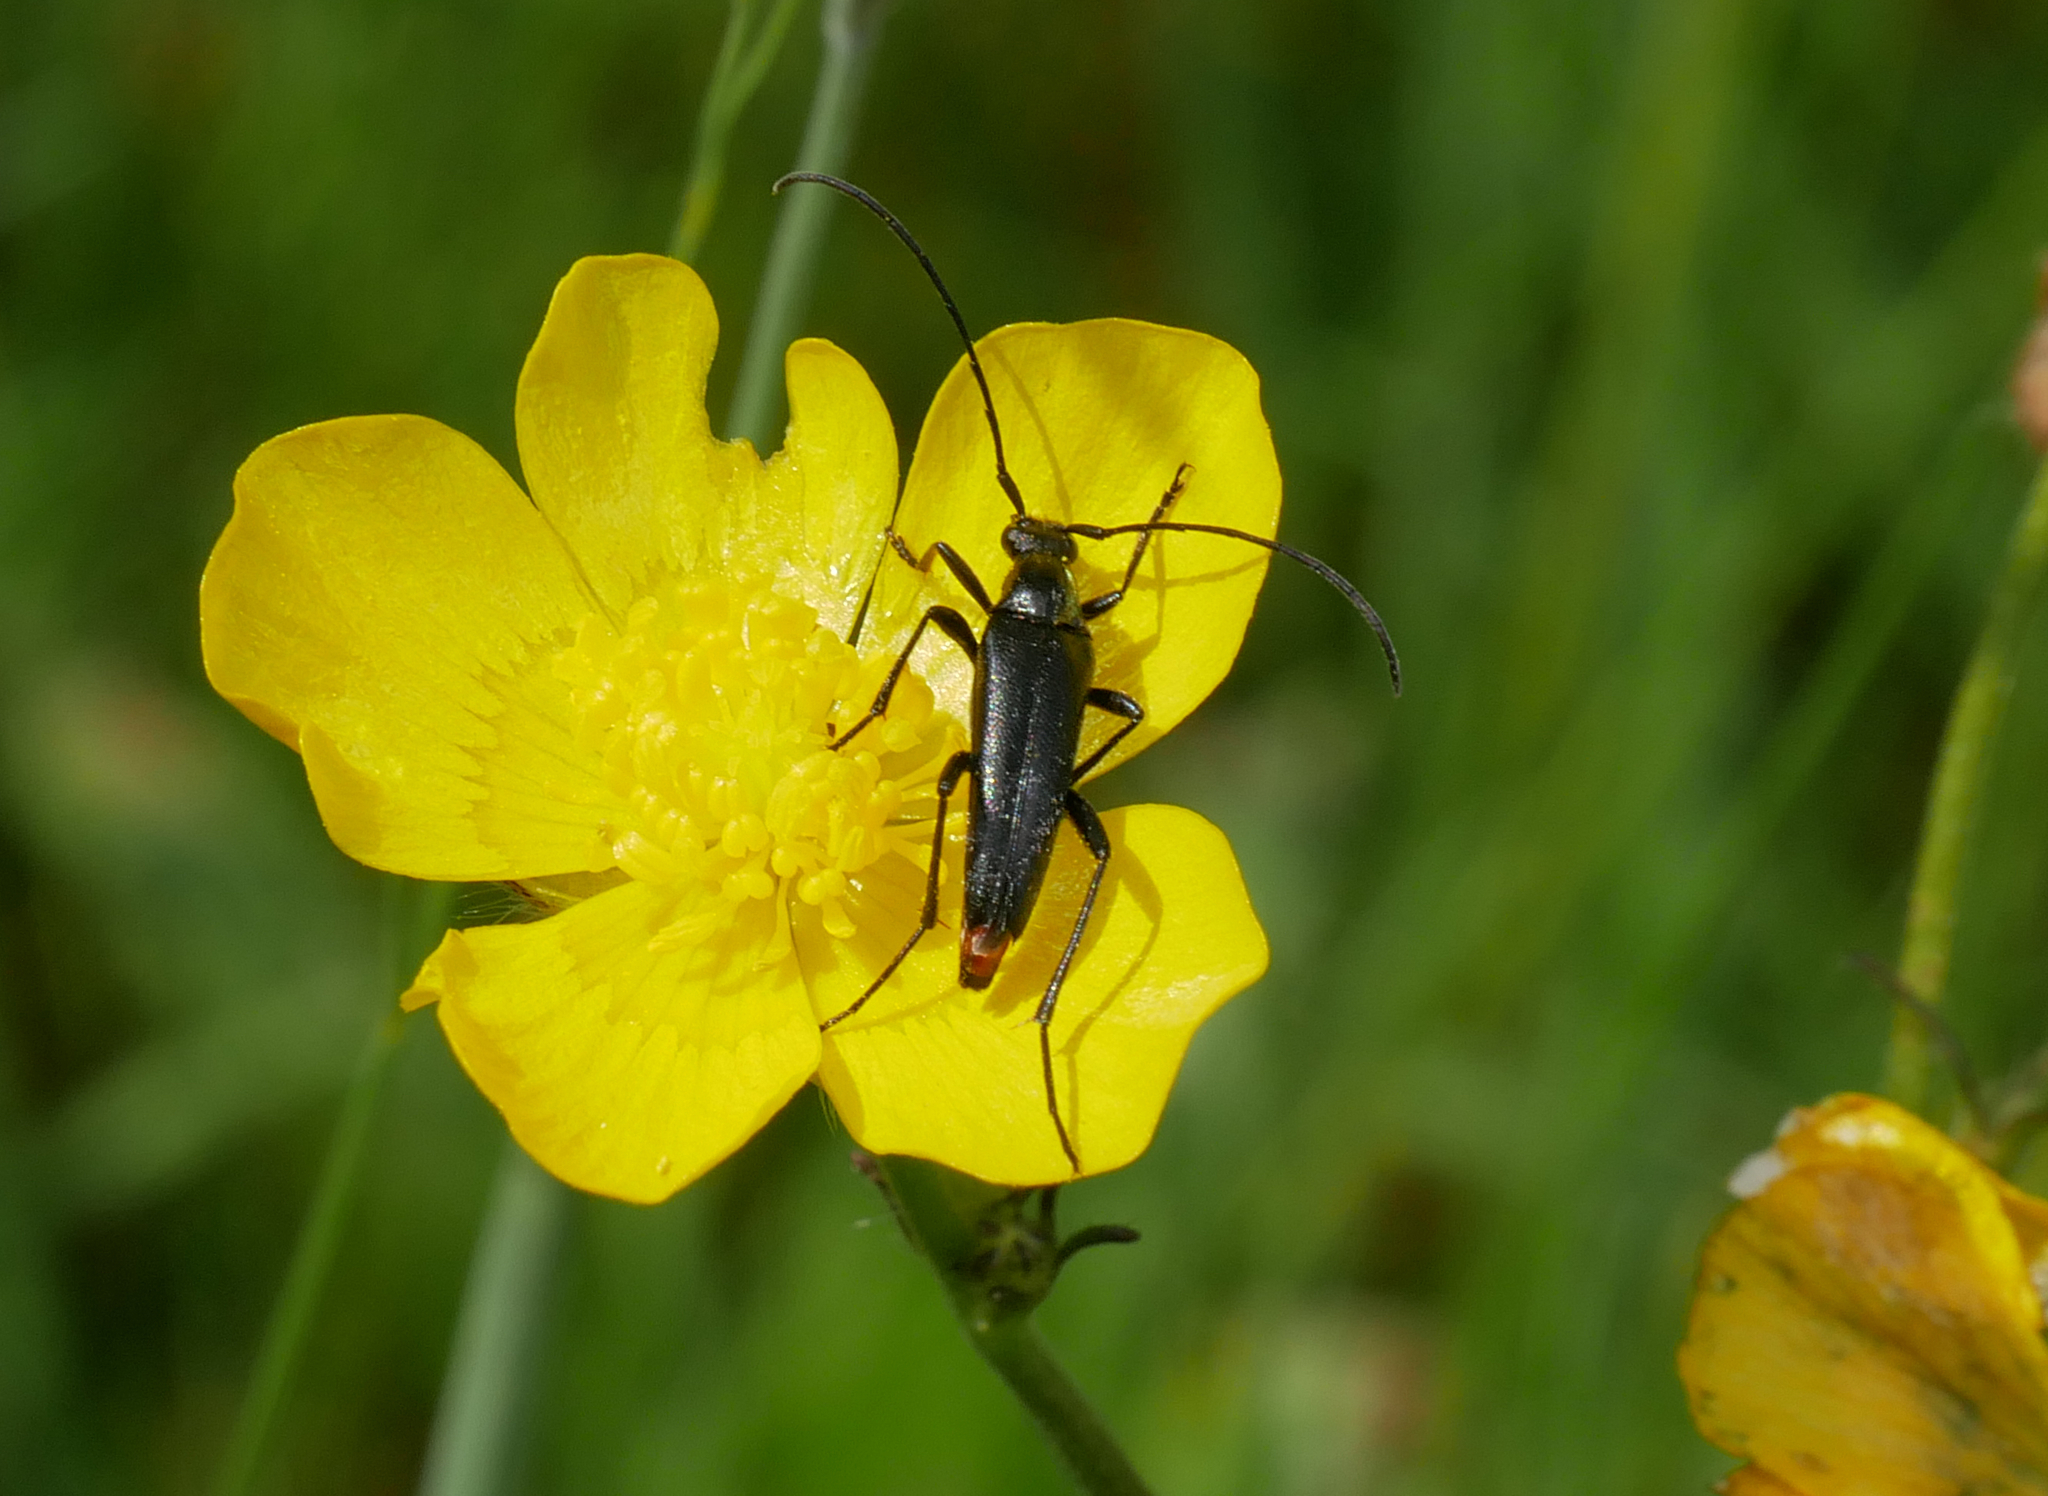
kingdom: Animalia
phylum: Arthropoda
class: Insecta
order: Coleoptera
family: Cerambycidae
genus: Stenurella
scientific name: Stenurella nigra
